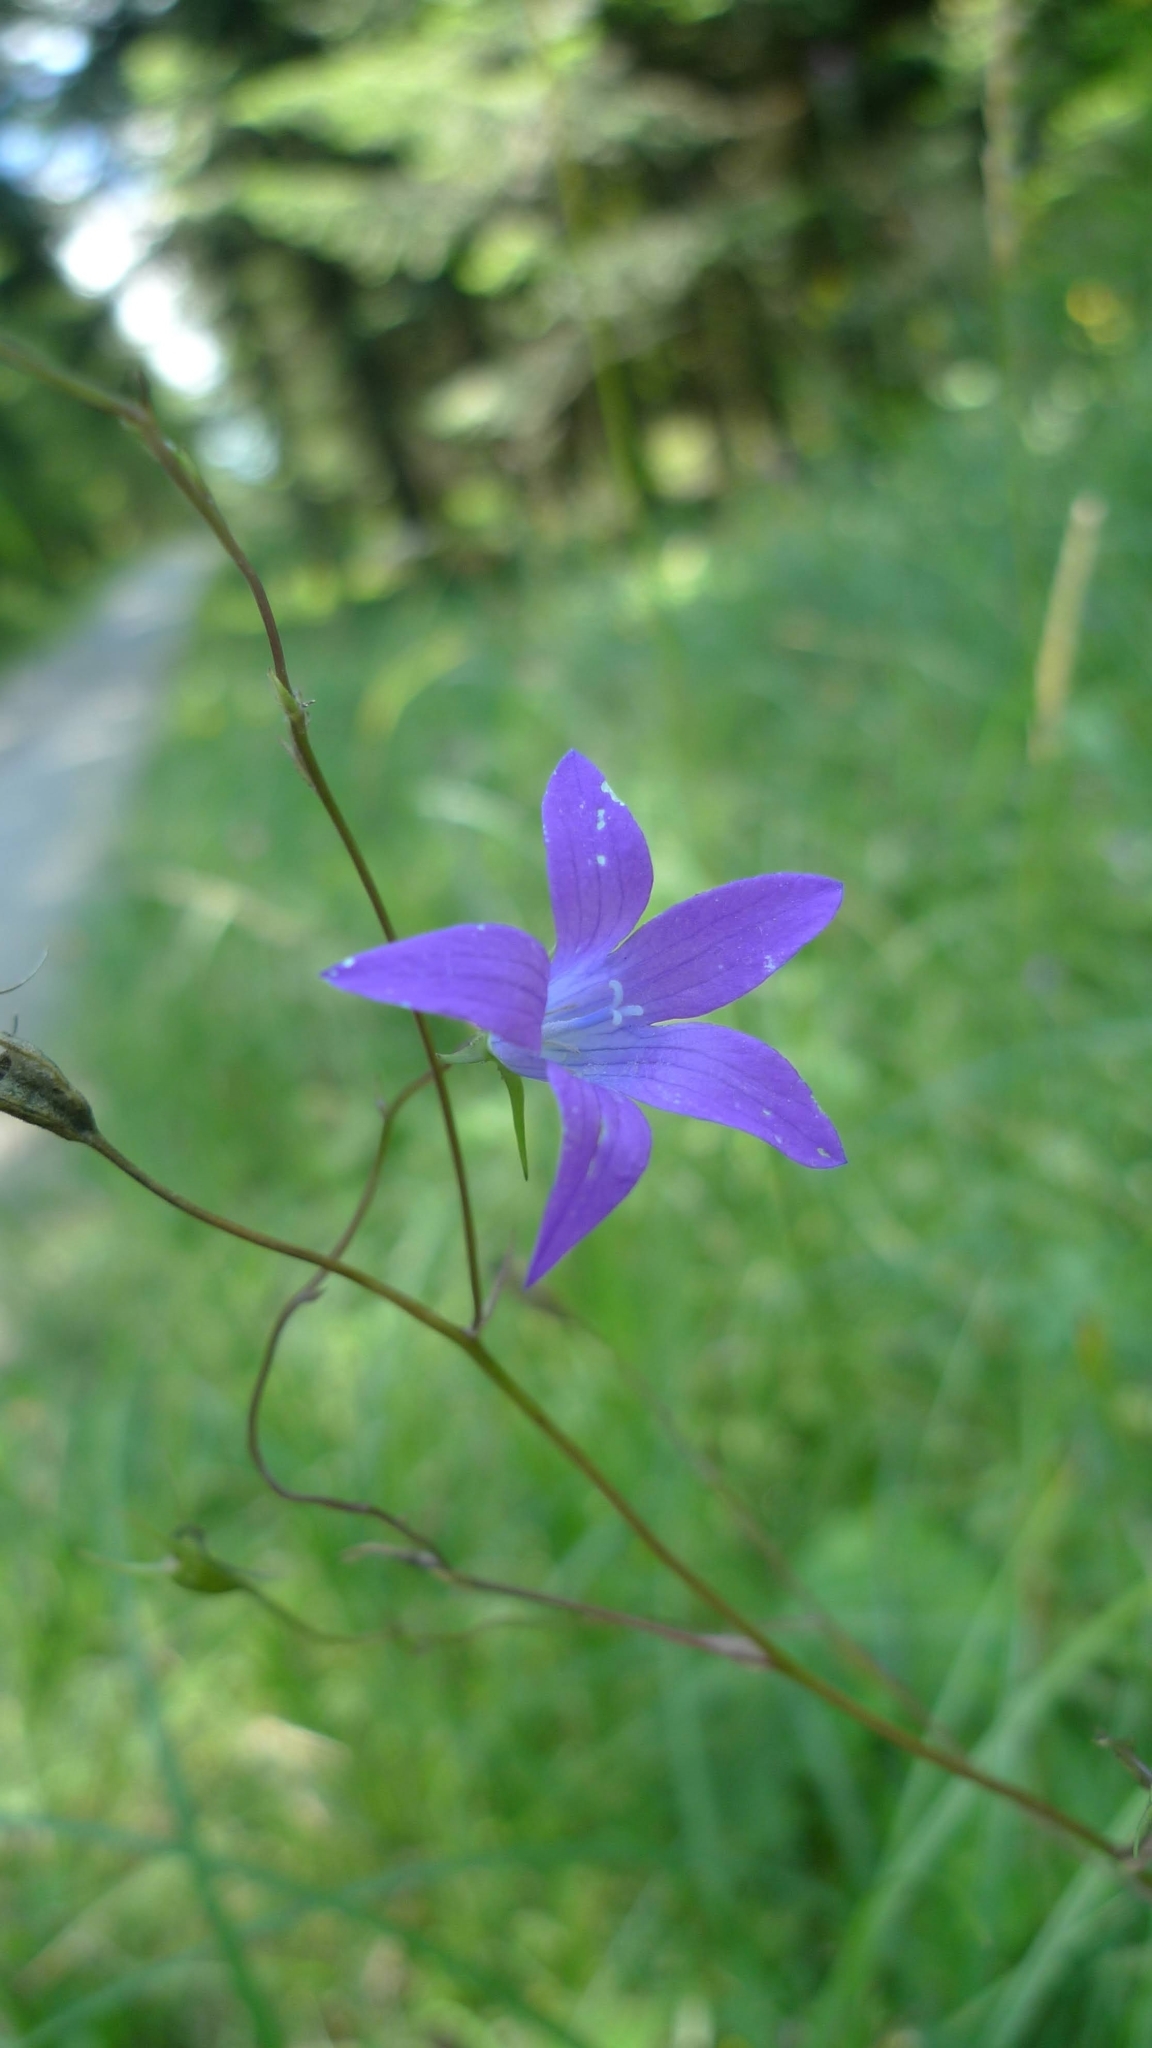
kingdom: Plantae
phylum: Tracheophyta
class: Magnoliopsida
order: Asterales
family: Campanulaceae
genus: Campanula
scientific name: Campanula patula
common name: Spreading bellflower
